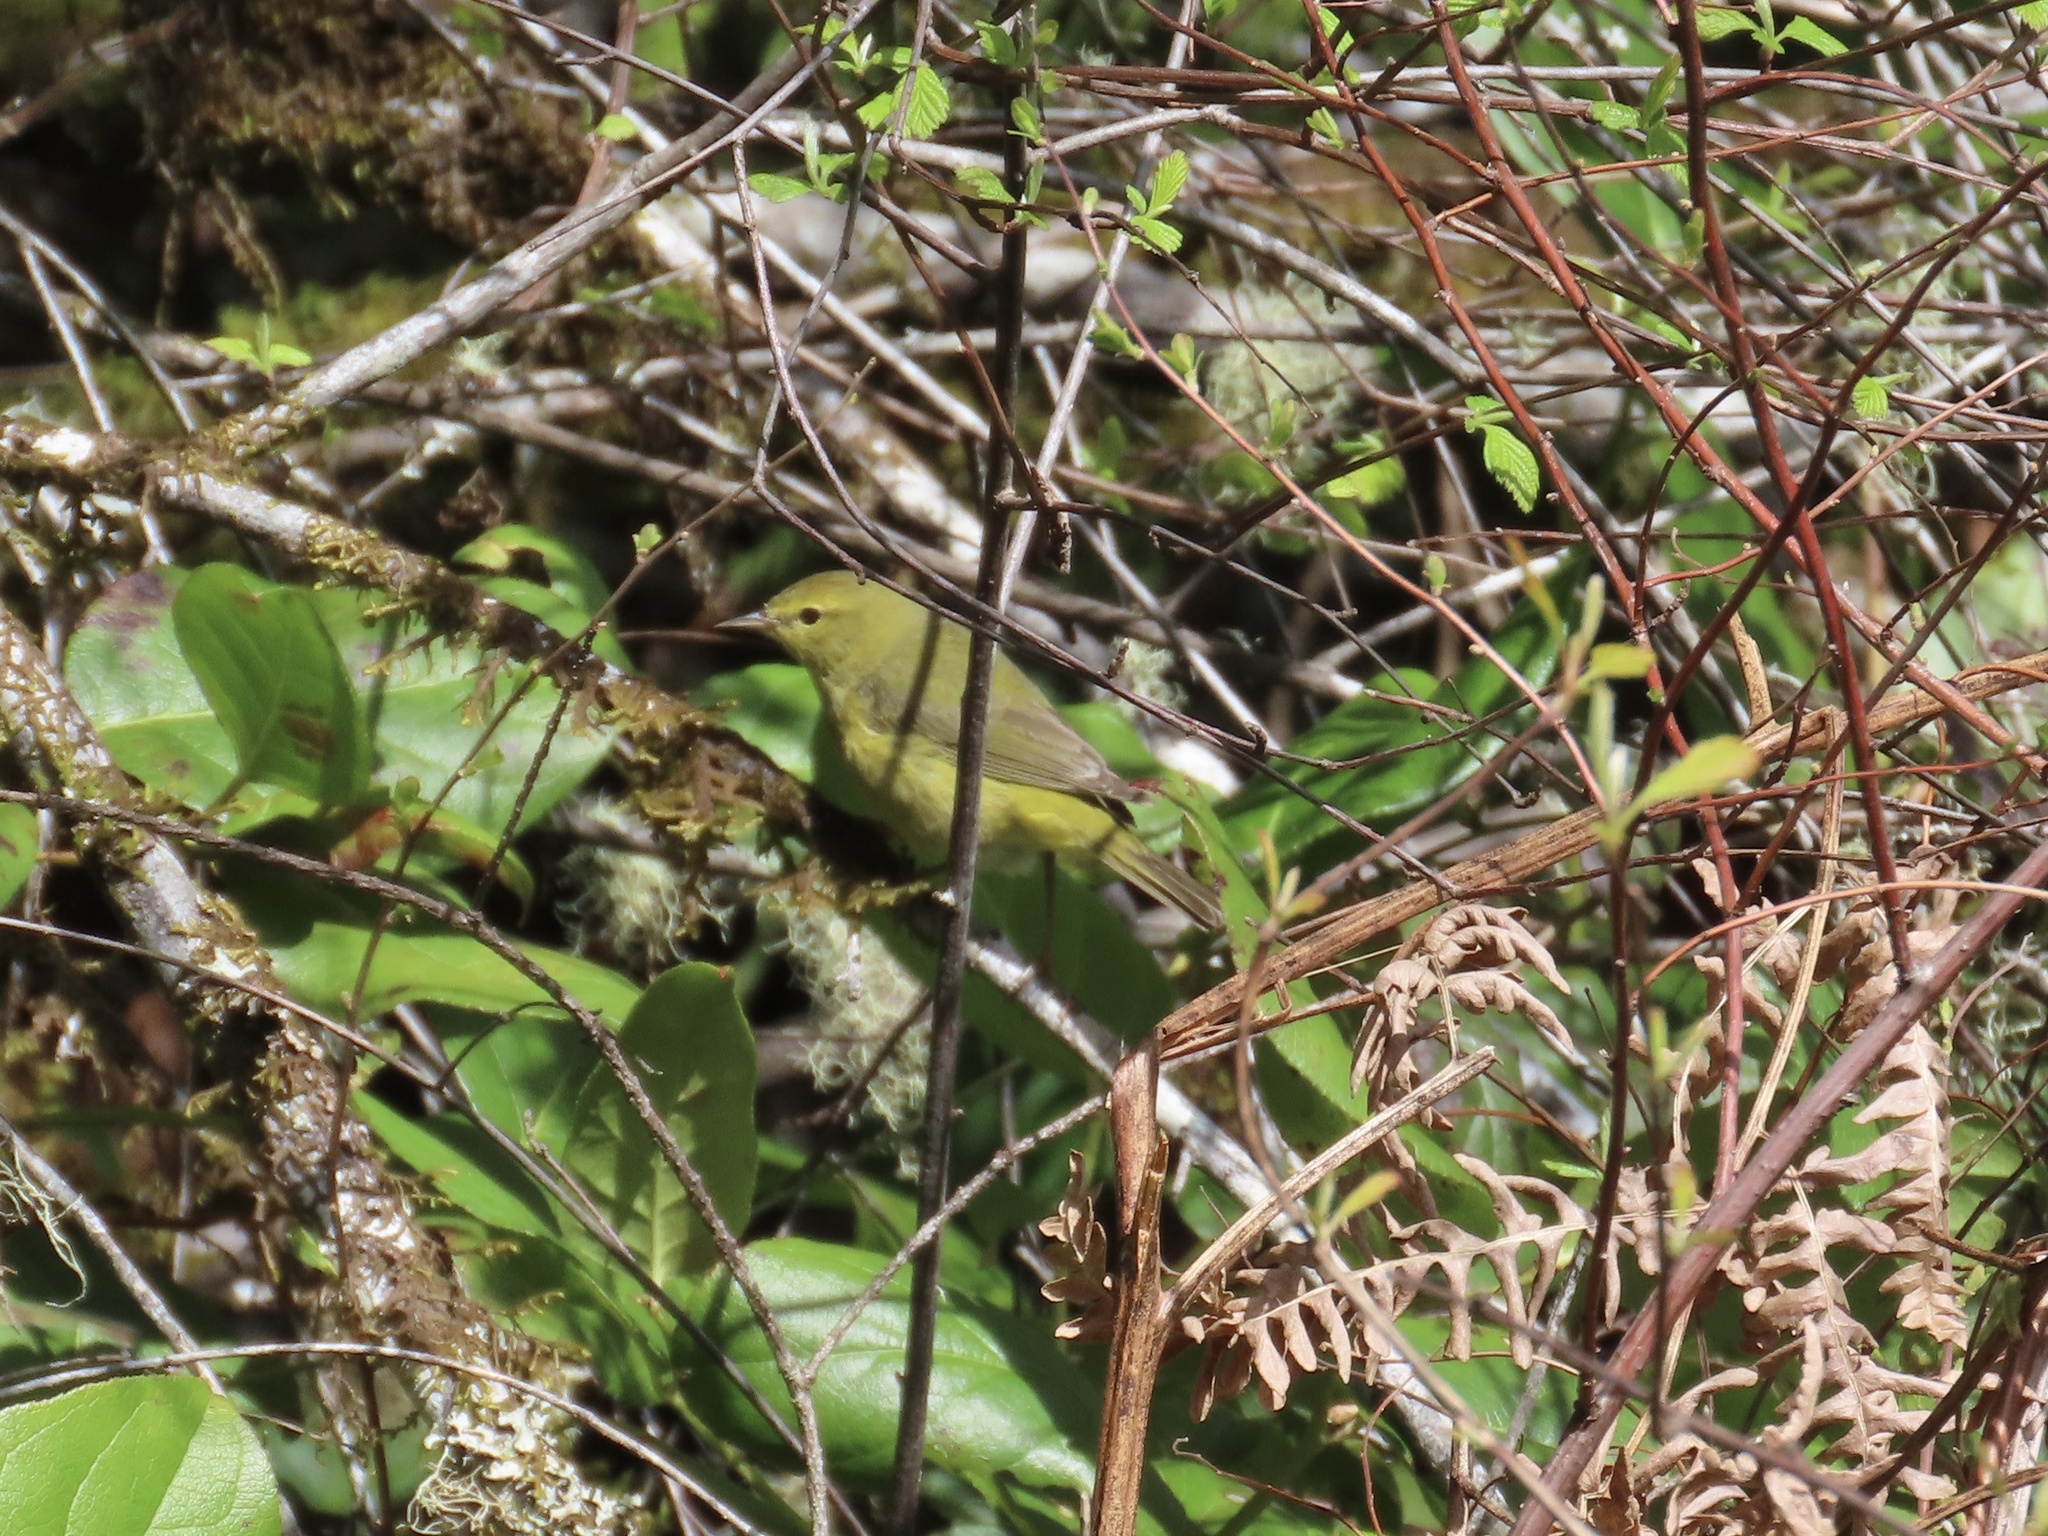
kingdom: Animalia
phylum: Chordata
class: Aves
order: Passeriformes
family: Parulidae
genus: Leiothlypis
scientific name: Leiothlypis celata
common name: Orange-crowned warbler
